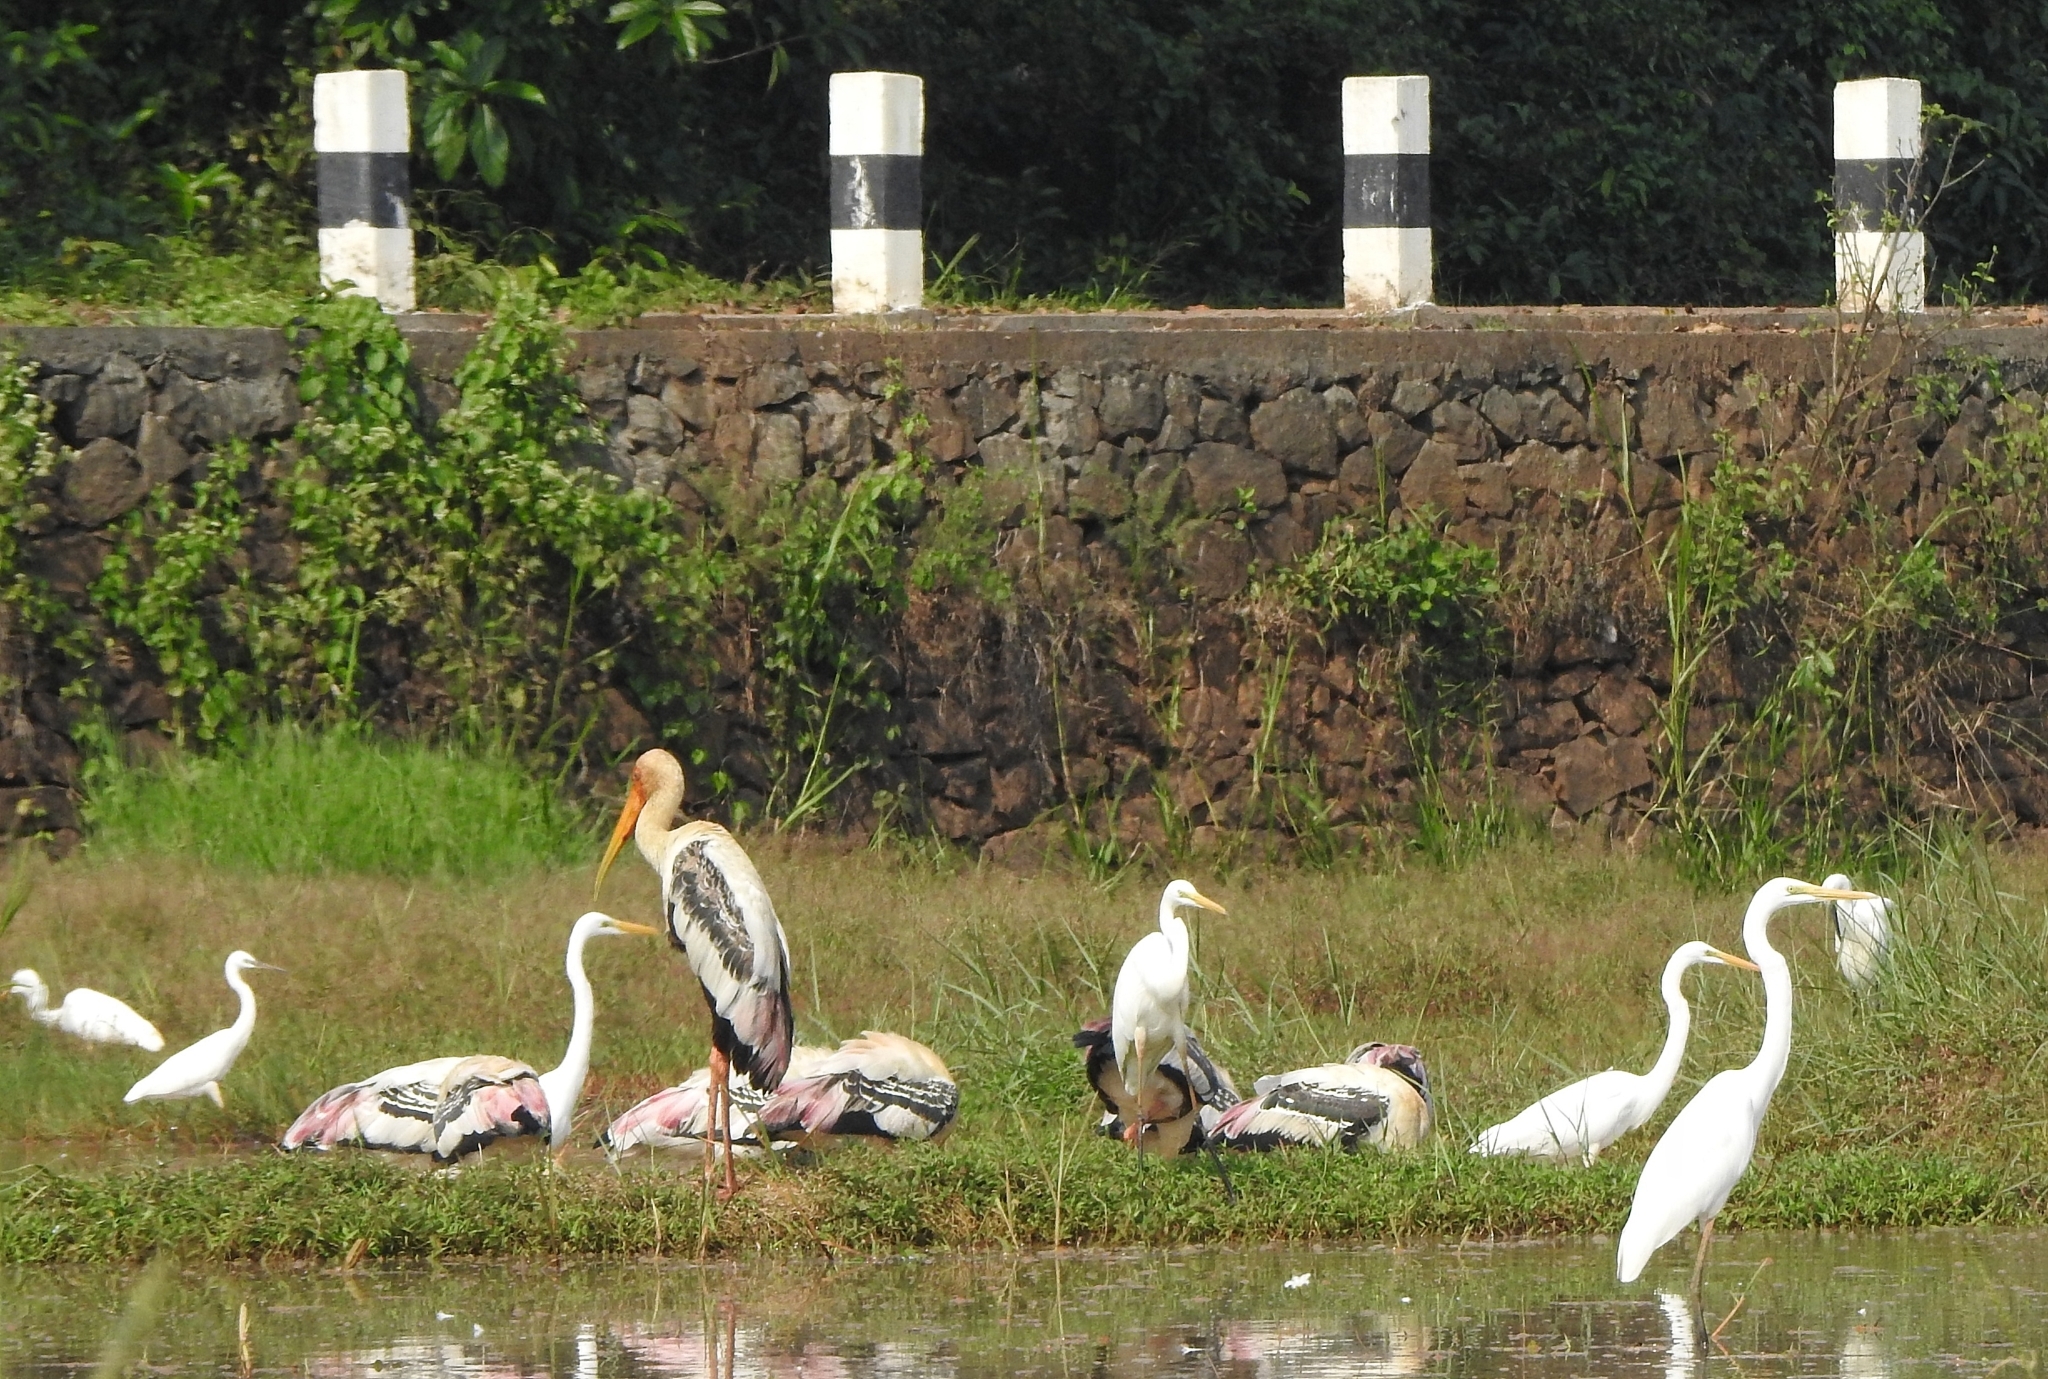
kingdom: Animalia
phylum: Chordata
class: Aves
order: Ciconiiformes
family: Ciconiidae
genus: Mycteria
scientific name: Mycteria leucocephala
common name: Painted stork
